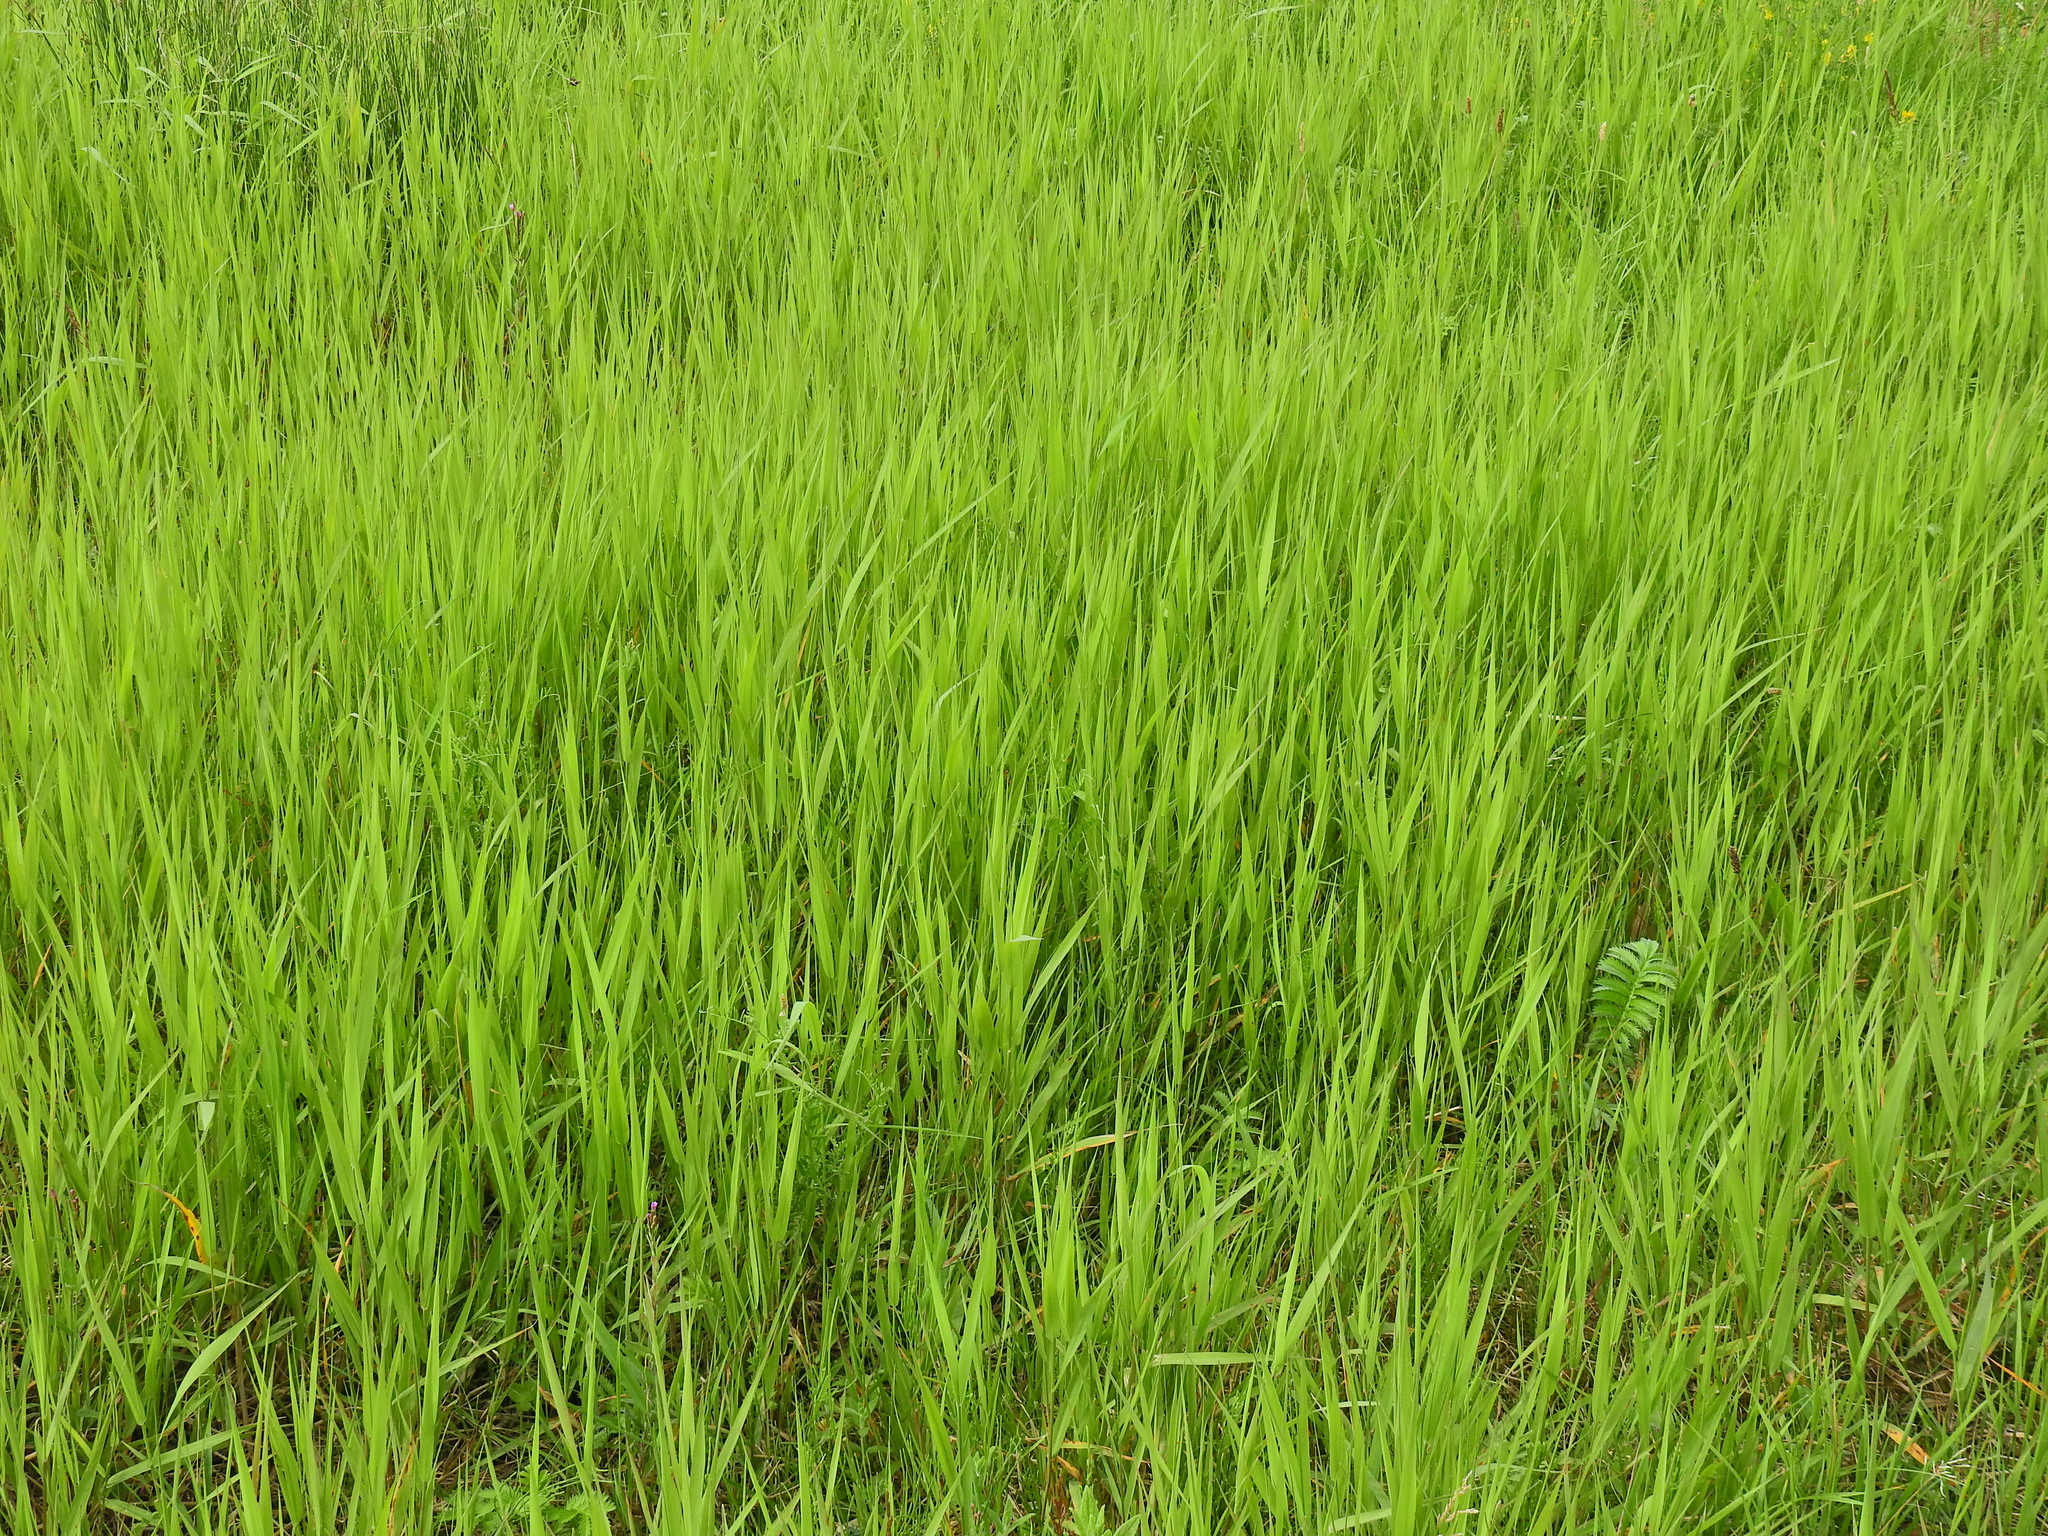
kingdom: Plantae
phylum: Tracheophyta
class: Liliopsida
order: Poales
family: Poaceae
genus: Phalaris
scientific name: Phalaris arundinacea
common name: Reed canary-grass
